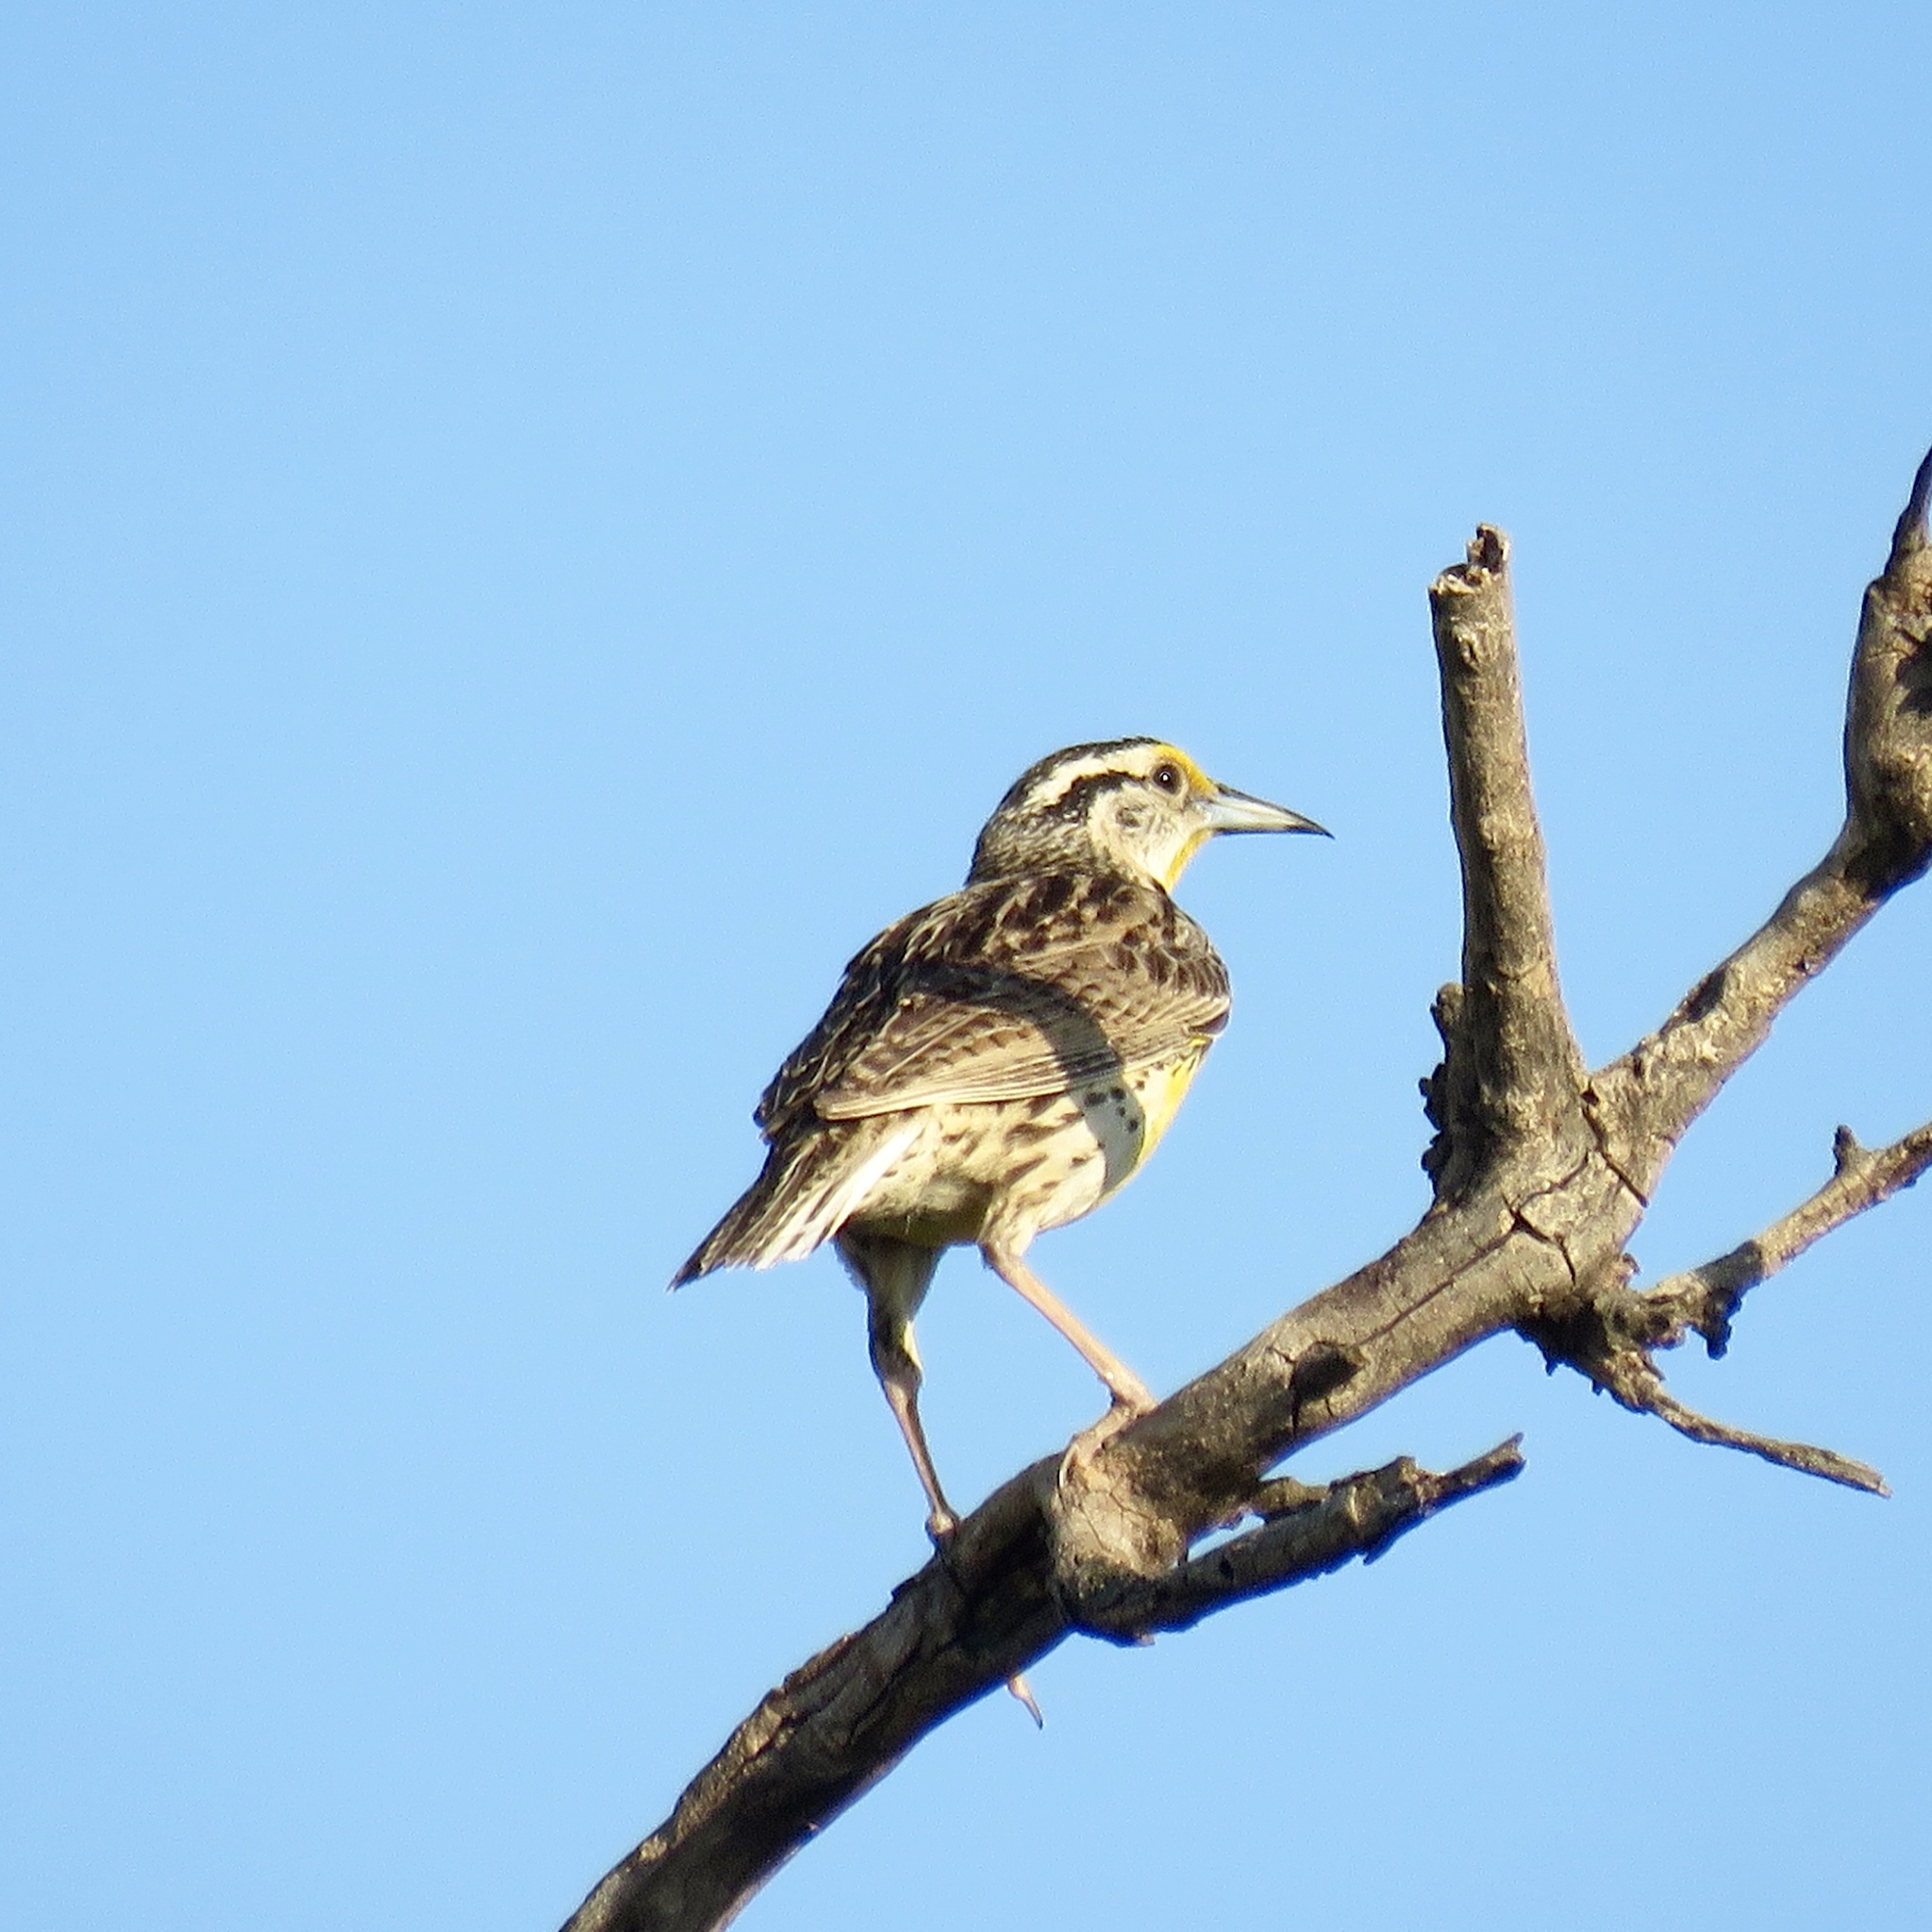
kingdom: Animalia
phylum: Chordata
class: Aves
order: Passeriformes
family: Icteridae
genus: Sturnella
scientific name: Sturnella magna
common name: Eastern meadowlark
